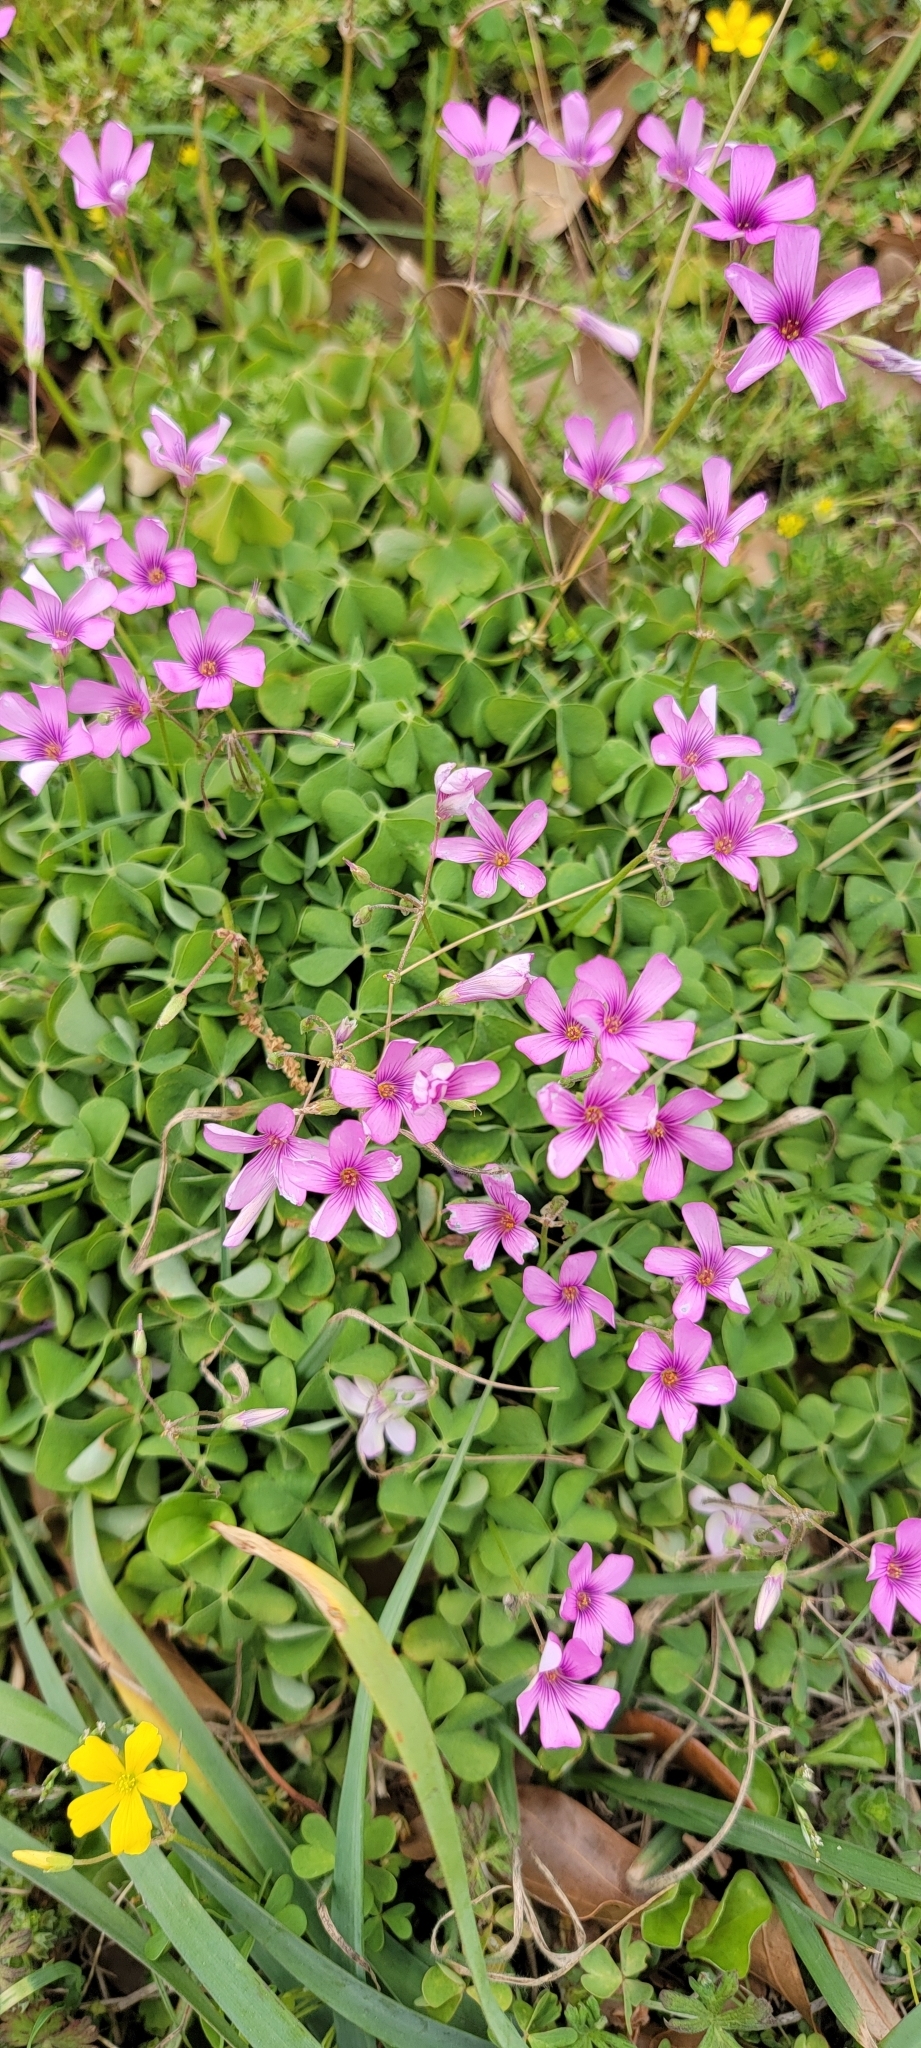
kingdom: Plantae
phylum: Tracheophyta
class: Magnoliopsida
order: Oxalidales
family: Oxalidaceae
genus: Oxalis
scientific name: Oxalis articulata
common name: Pink-sorrel
